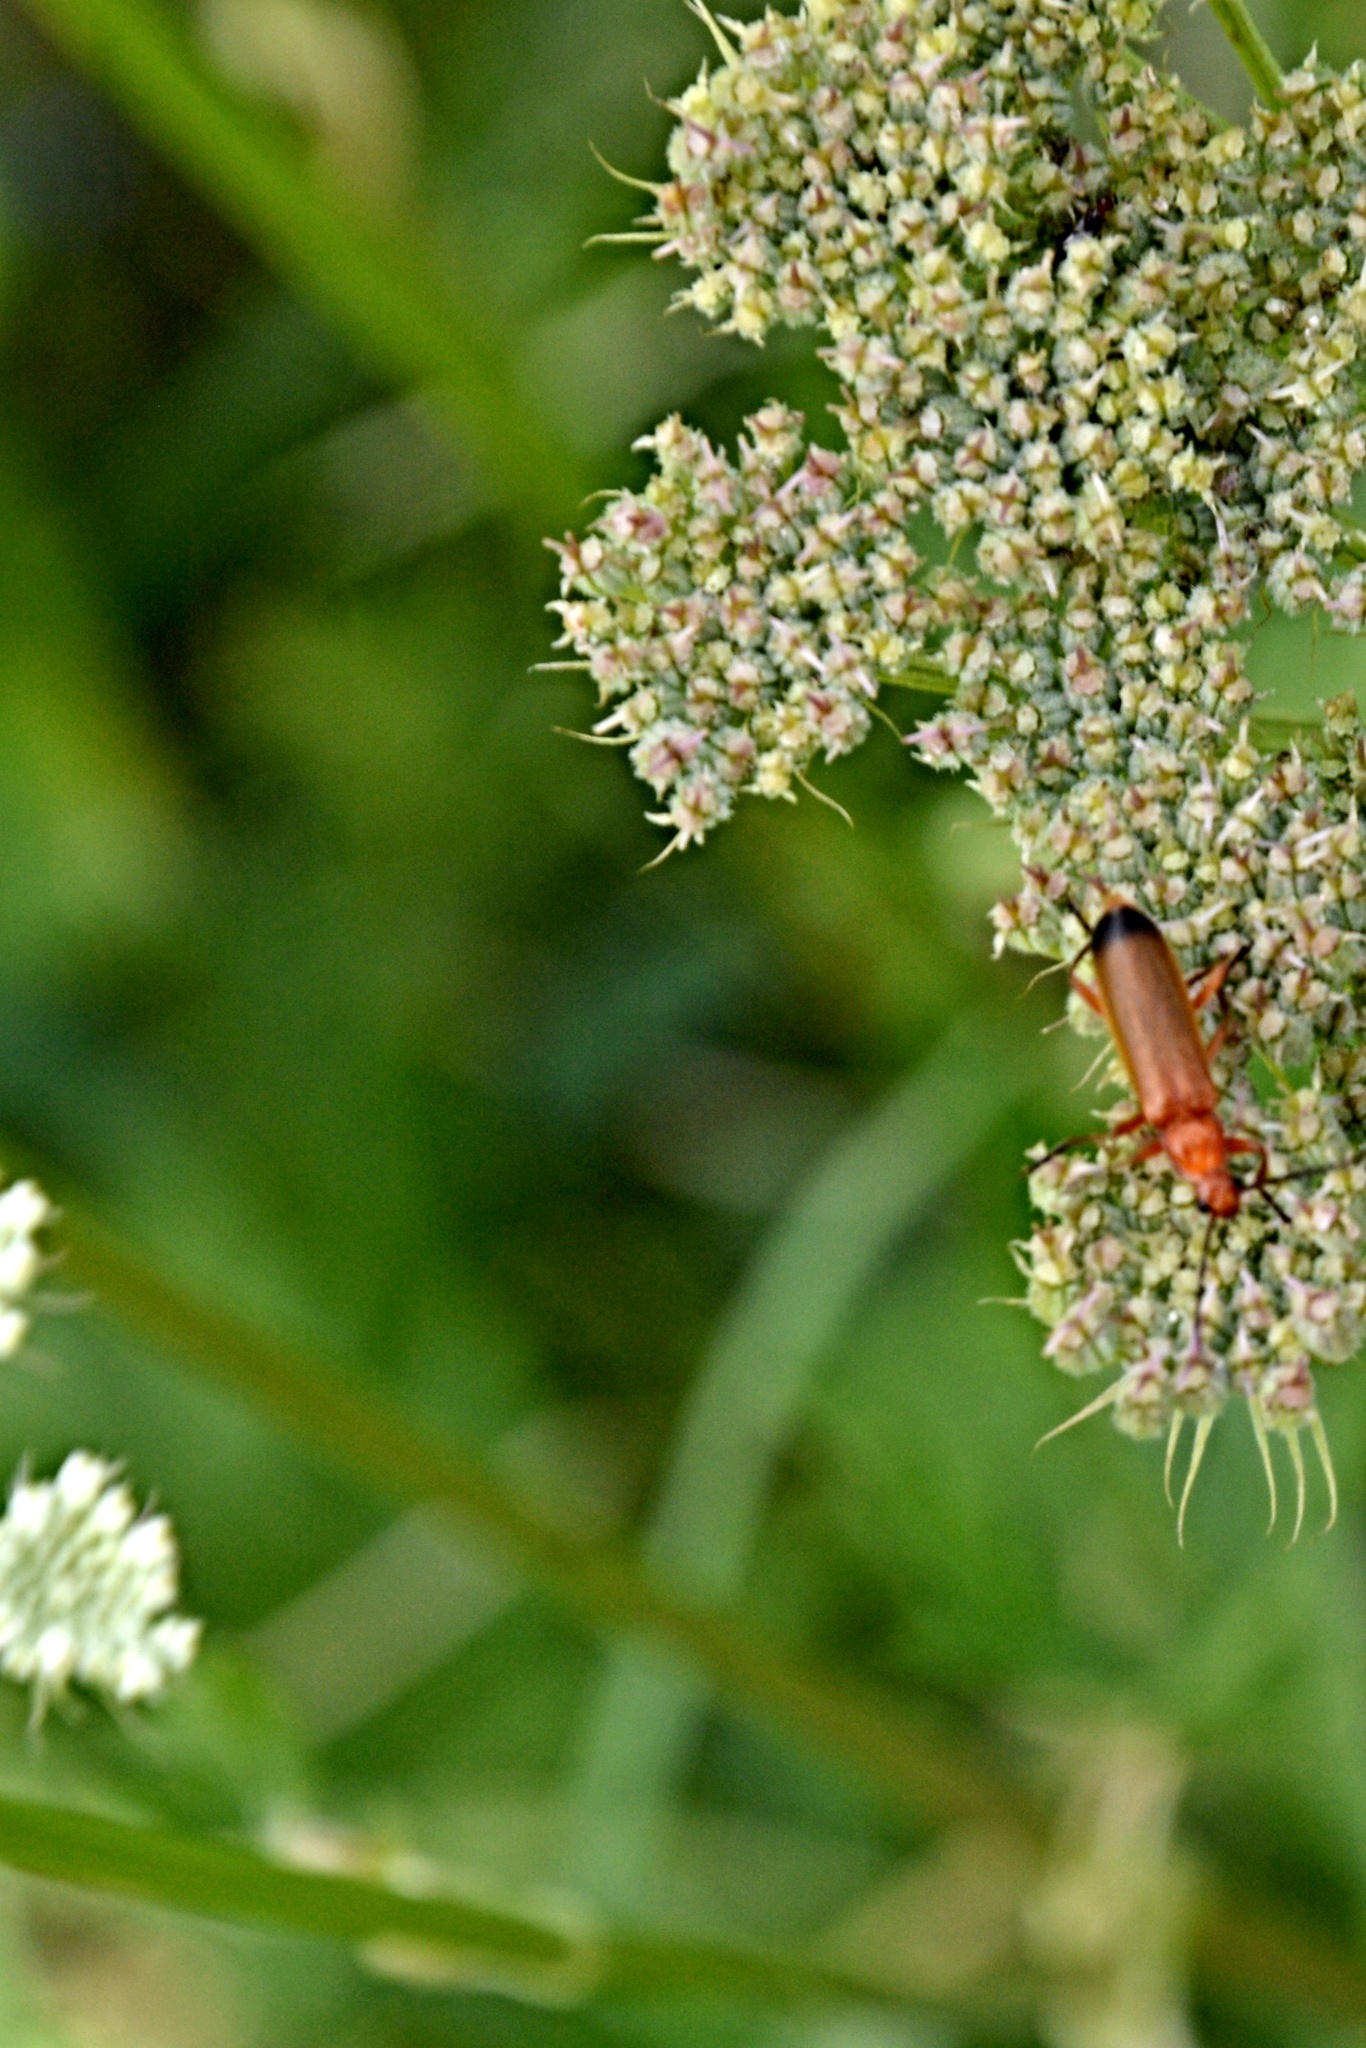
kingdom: Animalia
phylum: Arthropoda
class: Insecta
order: Coleoptera
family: Cantharidae
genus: Rhagonycha
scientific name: Rhagonycha fulva
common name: Common red soldier beetle
